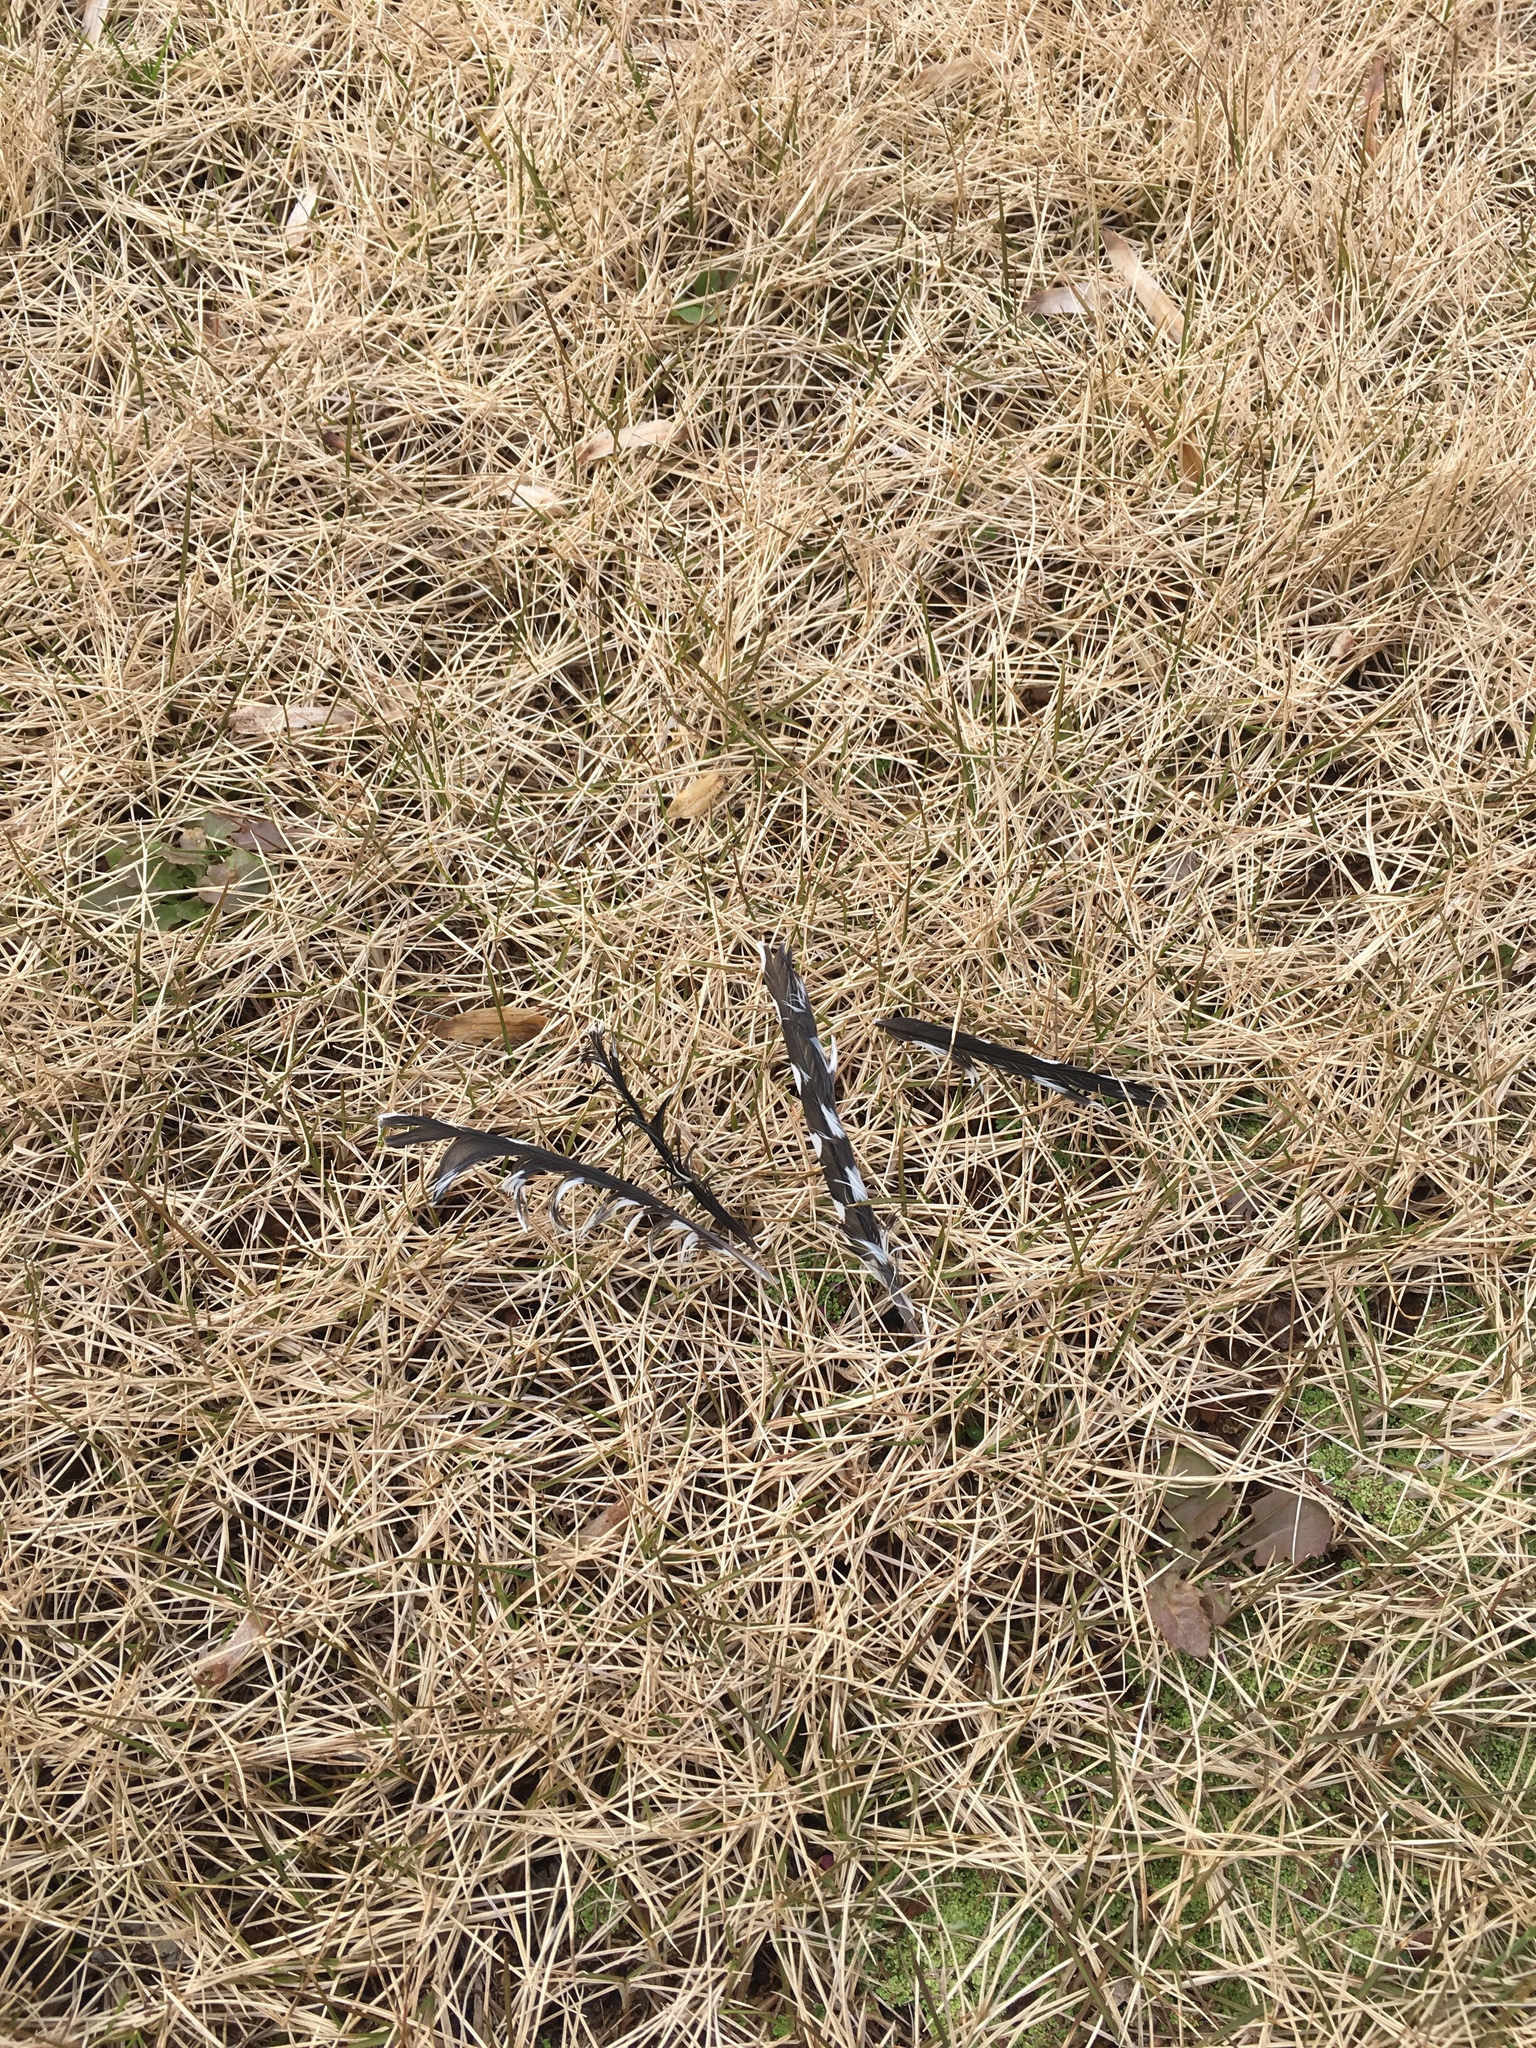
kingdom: Animalia
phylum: Chordata
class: Aves
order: Piciformes
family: Picidae
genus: Sphyrapicus
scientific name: Sphyrapicus varius
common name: Yellow-bellied sapsucker
